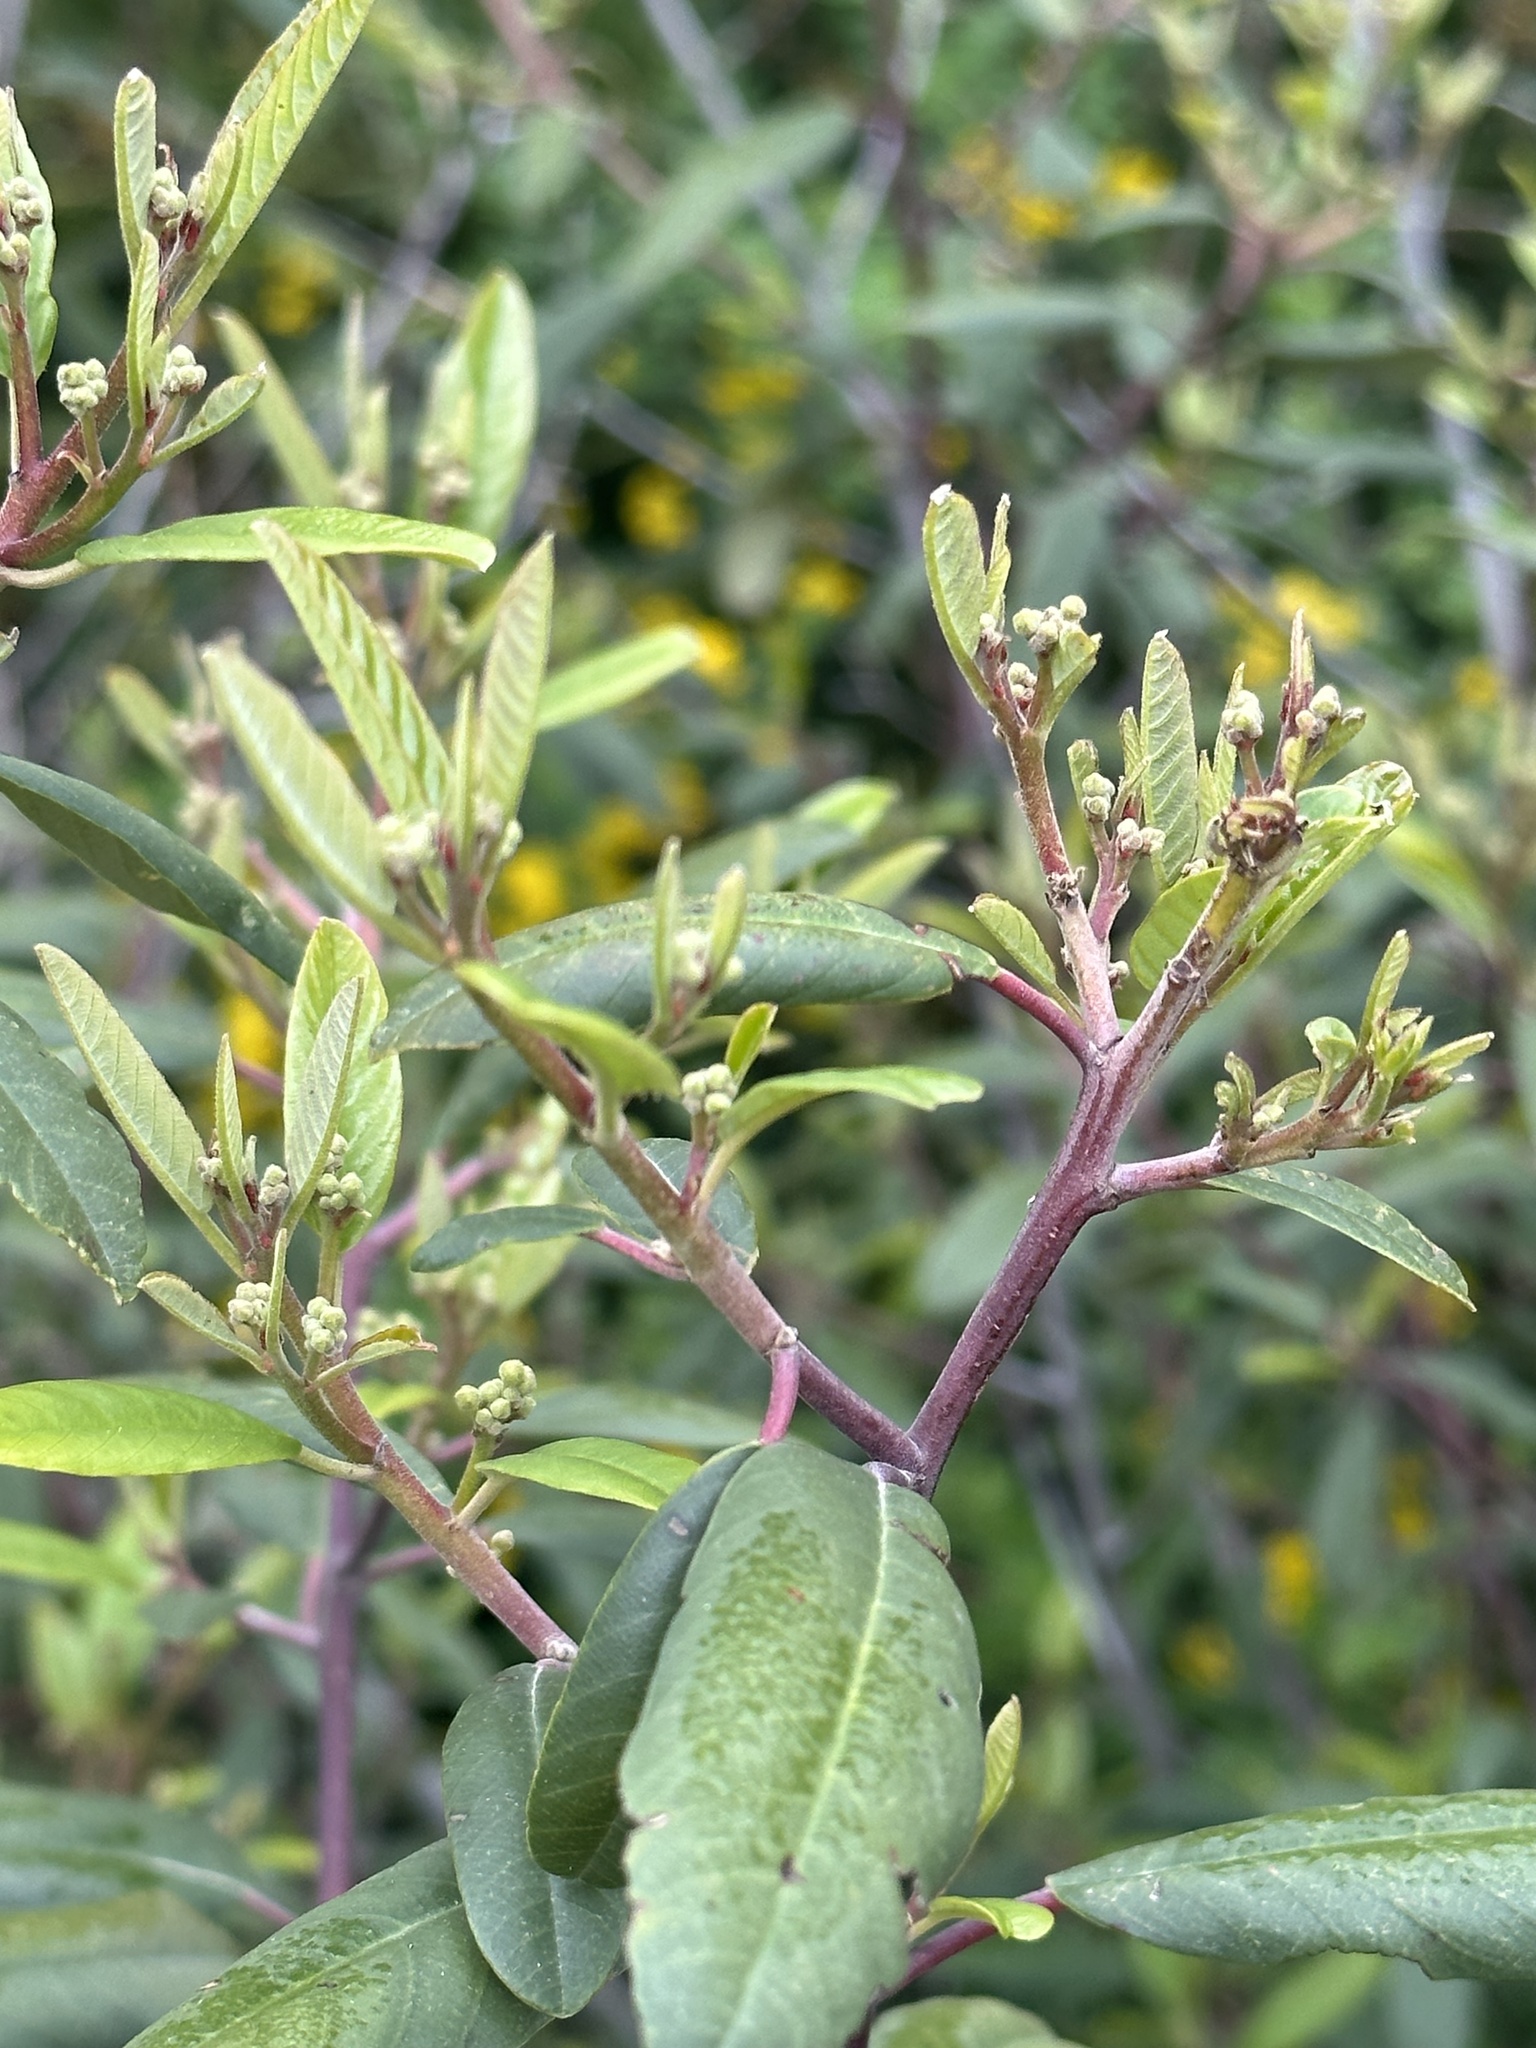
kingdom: Plantae
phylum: Tracheophyta
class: Magnoliopsida
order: Rosales
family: Rhamnaceae
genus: Frangula
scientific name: Frangula californica
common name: California buckthorn
